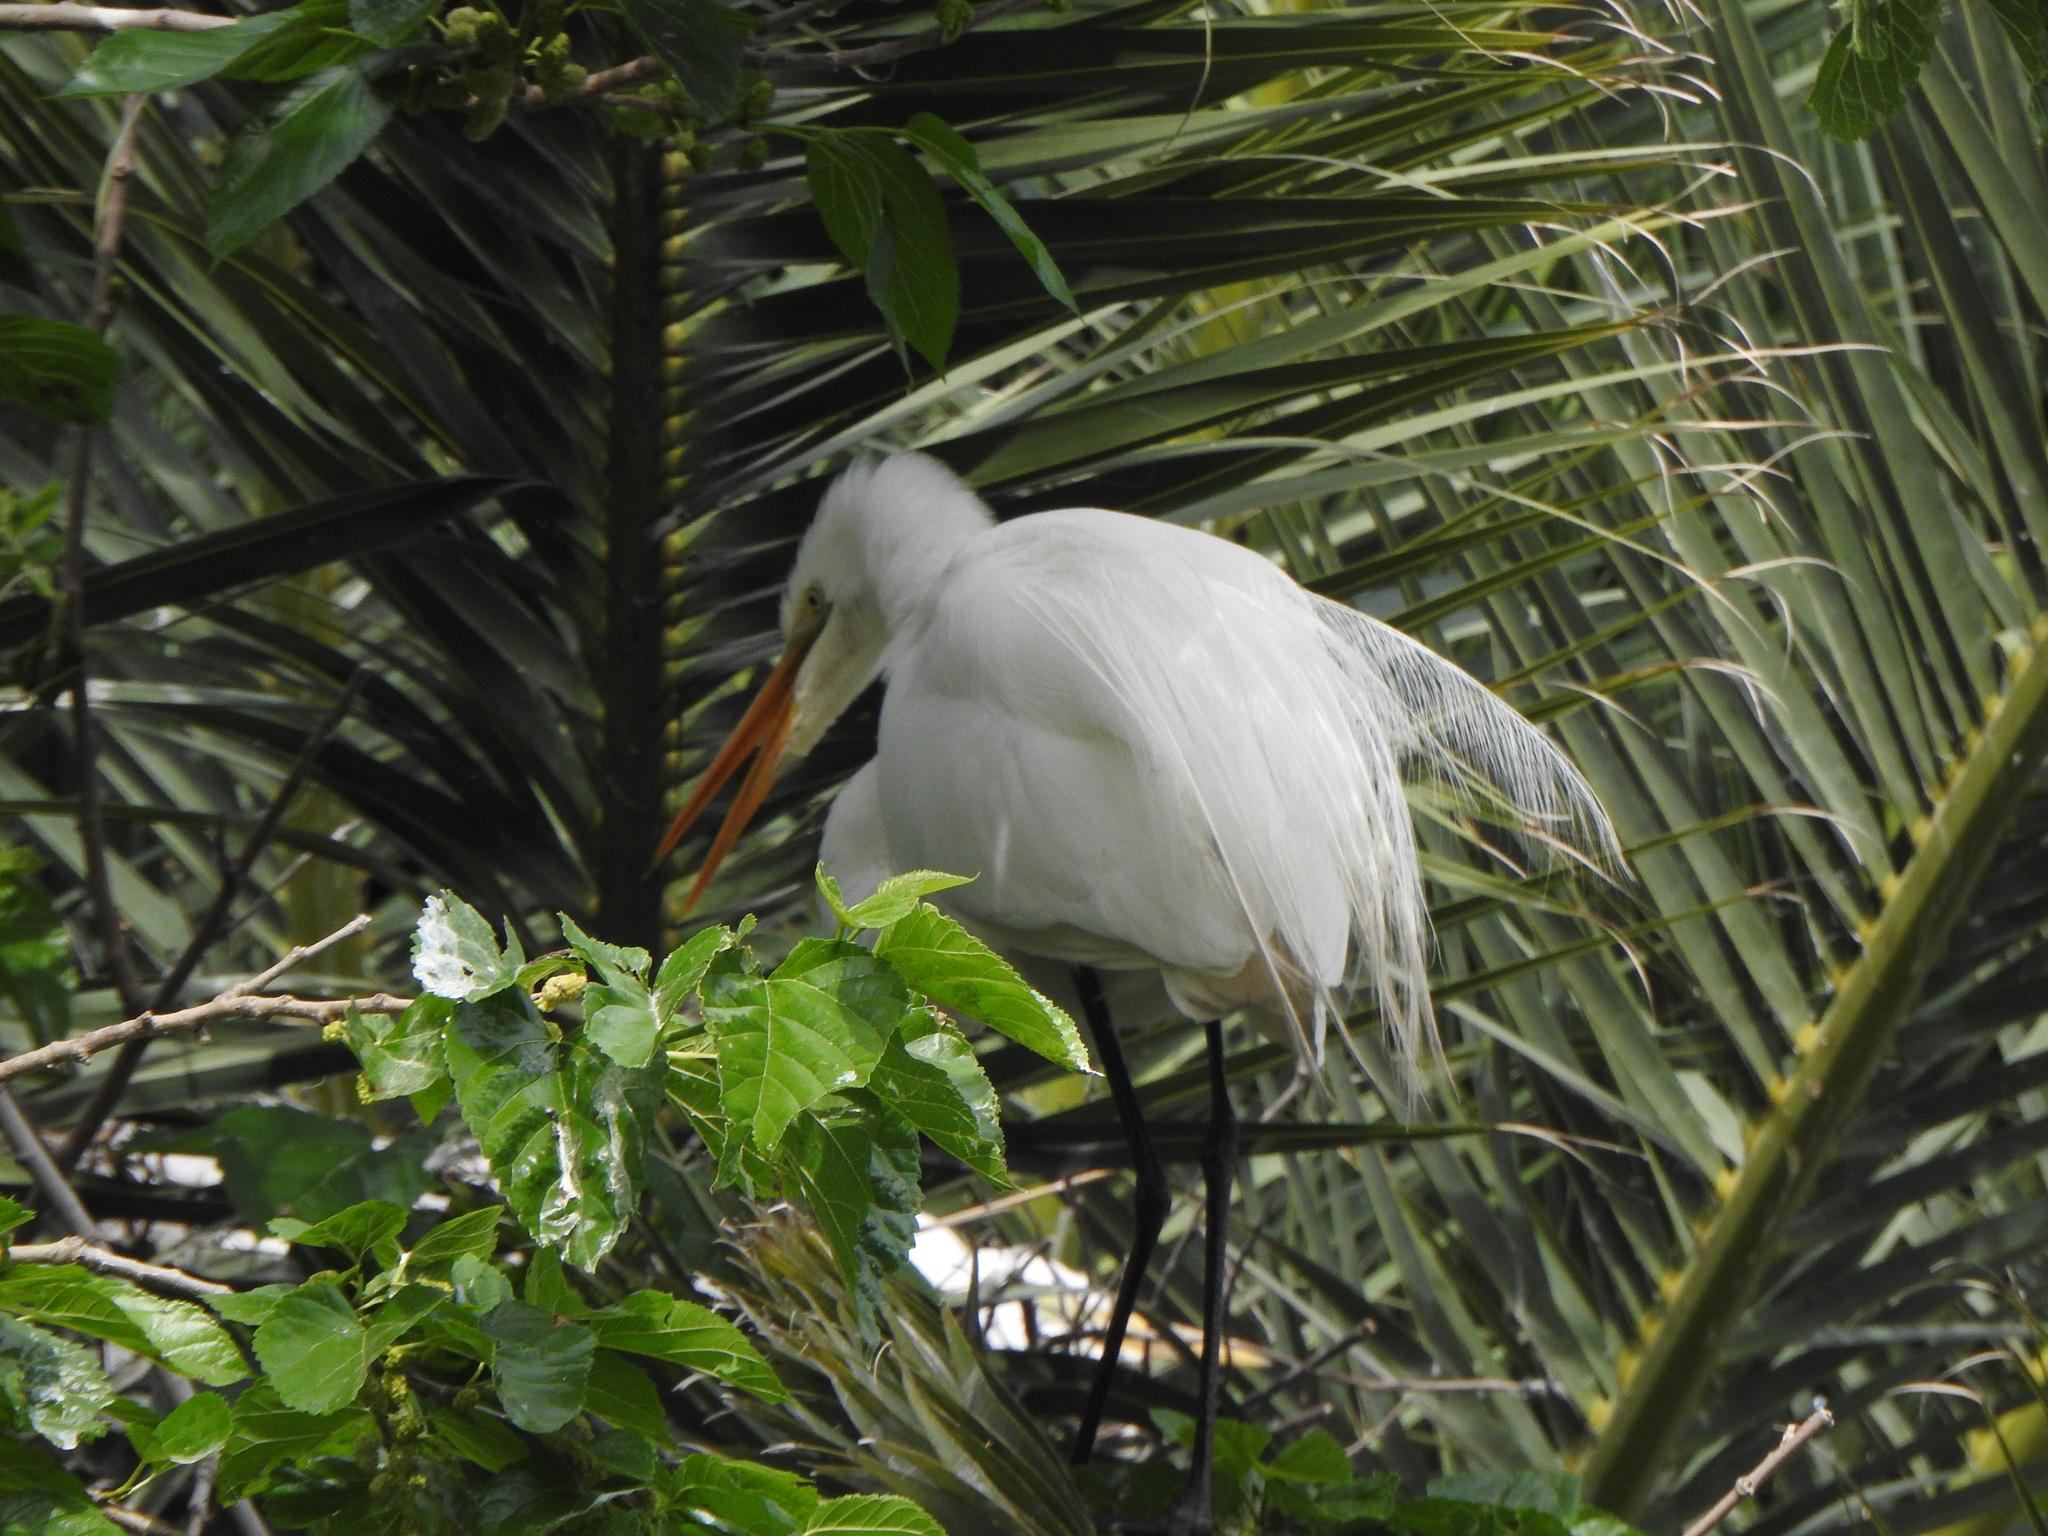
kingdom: Animalia
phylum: Chordata
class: Aves
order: Pelecaniformes
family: Ardeidae
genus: Ardea
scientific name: Ardea alba
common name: Great egret
